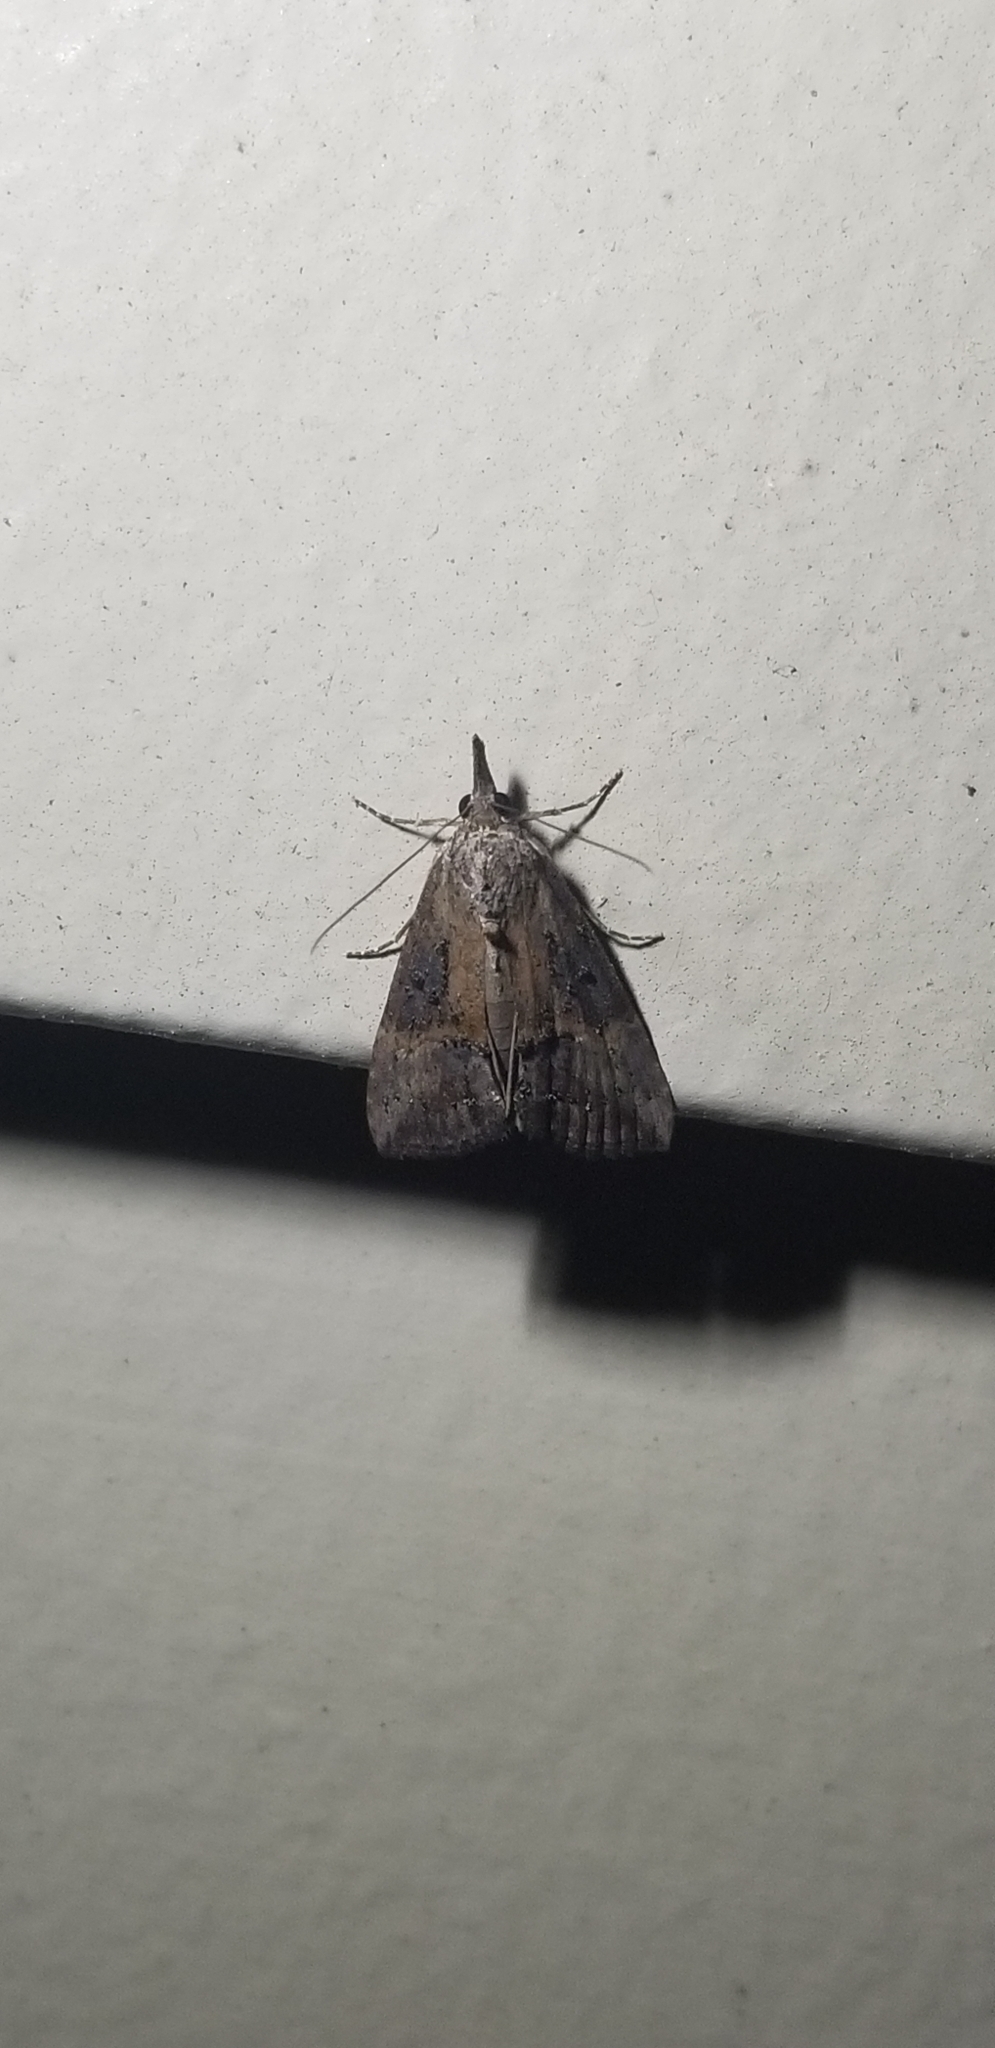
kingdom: Animalia
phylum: Arthropoda
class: Insecta
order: Lepidoptera
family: Erebidae
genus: Hypena
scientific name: Hypena scabra
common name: Green cloverworm
